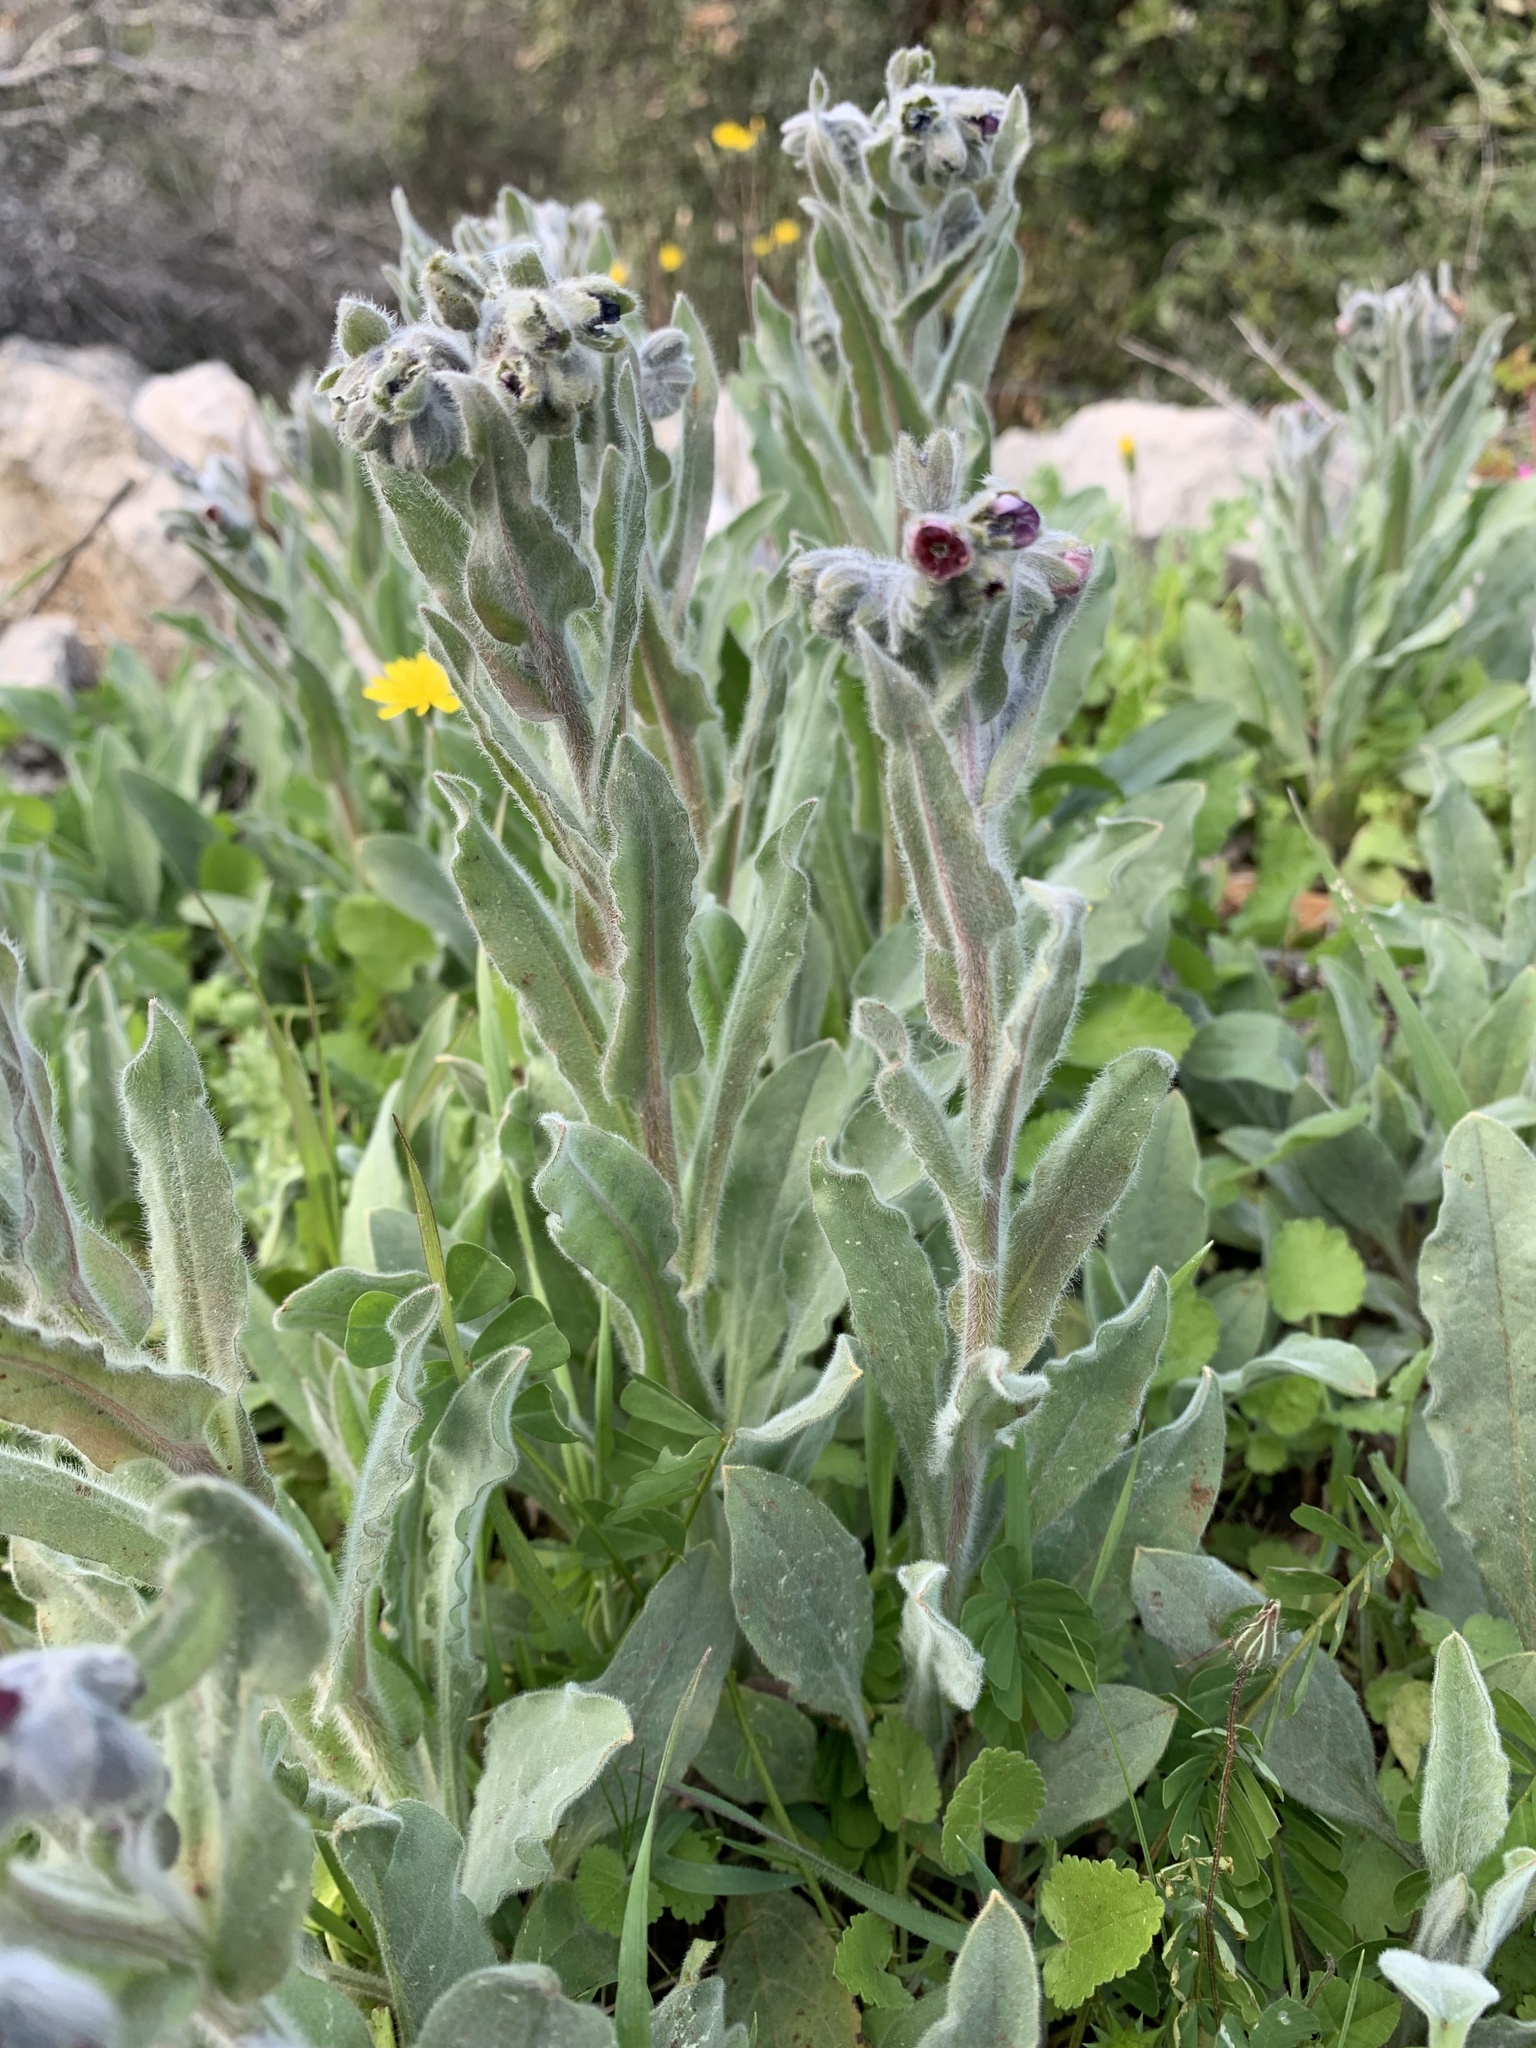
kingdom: Plantae
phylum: Tracheophyta
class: Magnoliopsida
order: Boraginales
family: Boraginaceae
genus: Cynoglossum
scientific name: Cynoglossum creticum
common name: Blue hound's tongue
